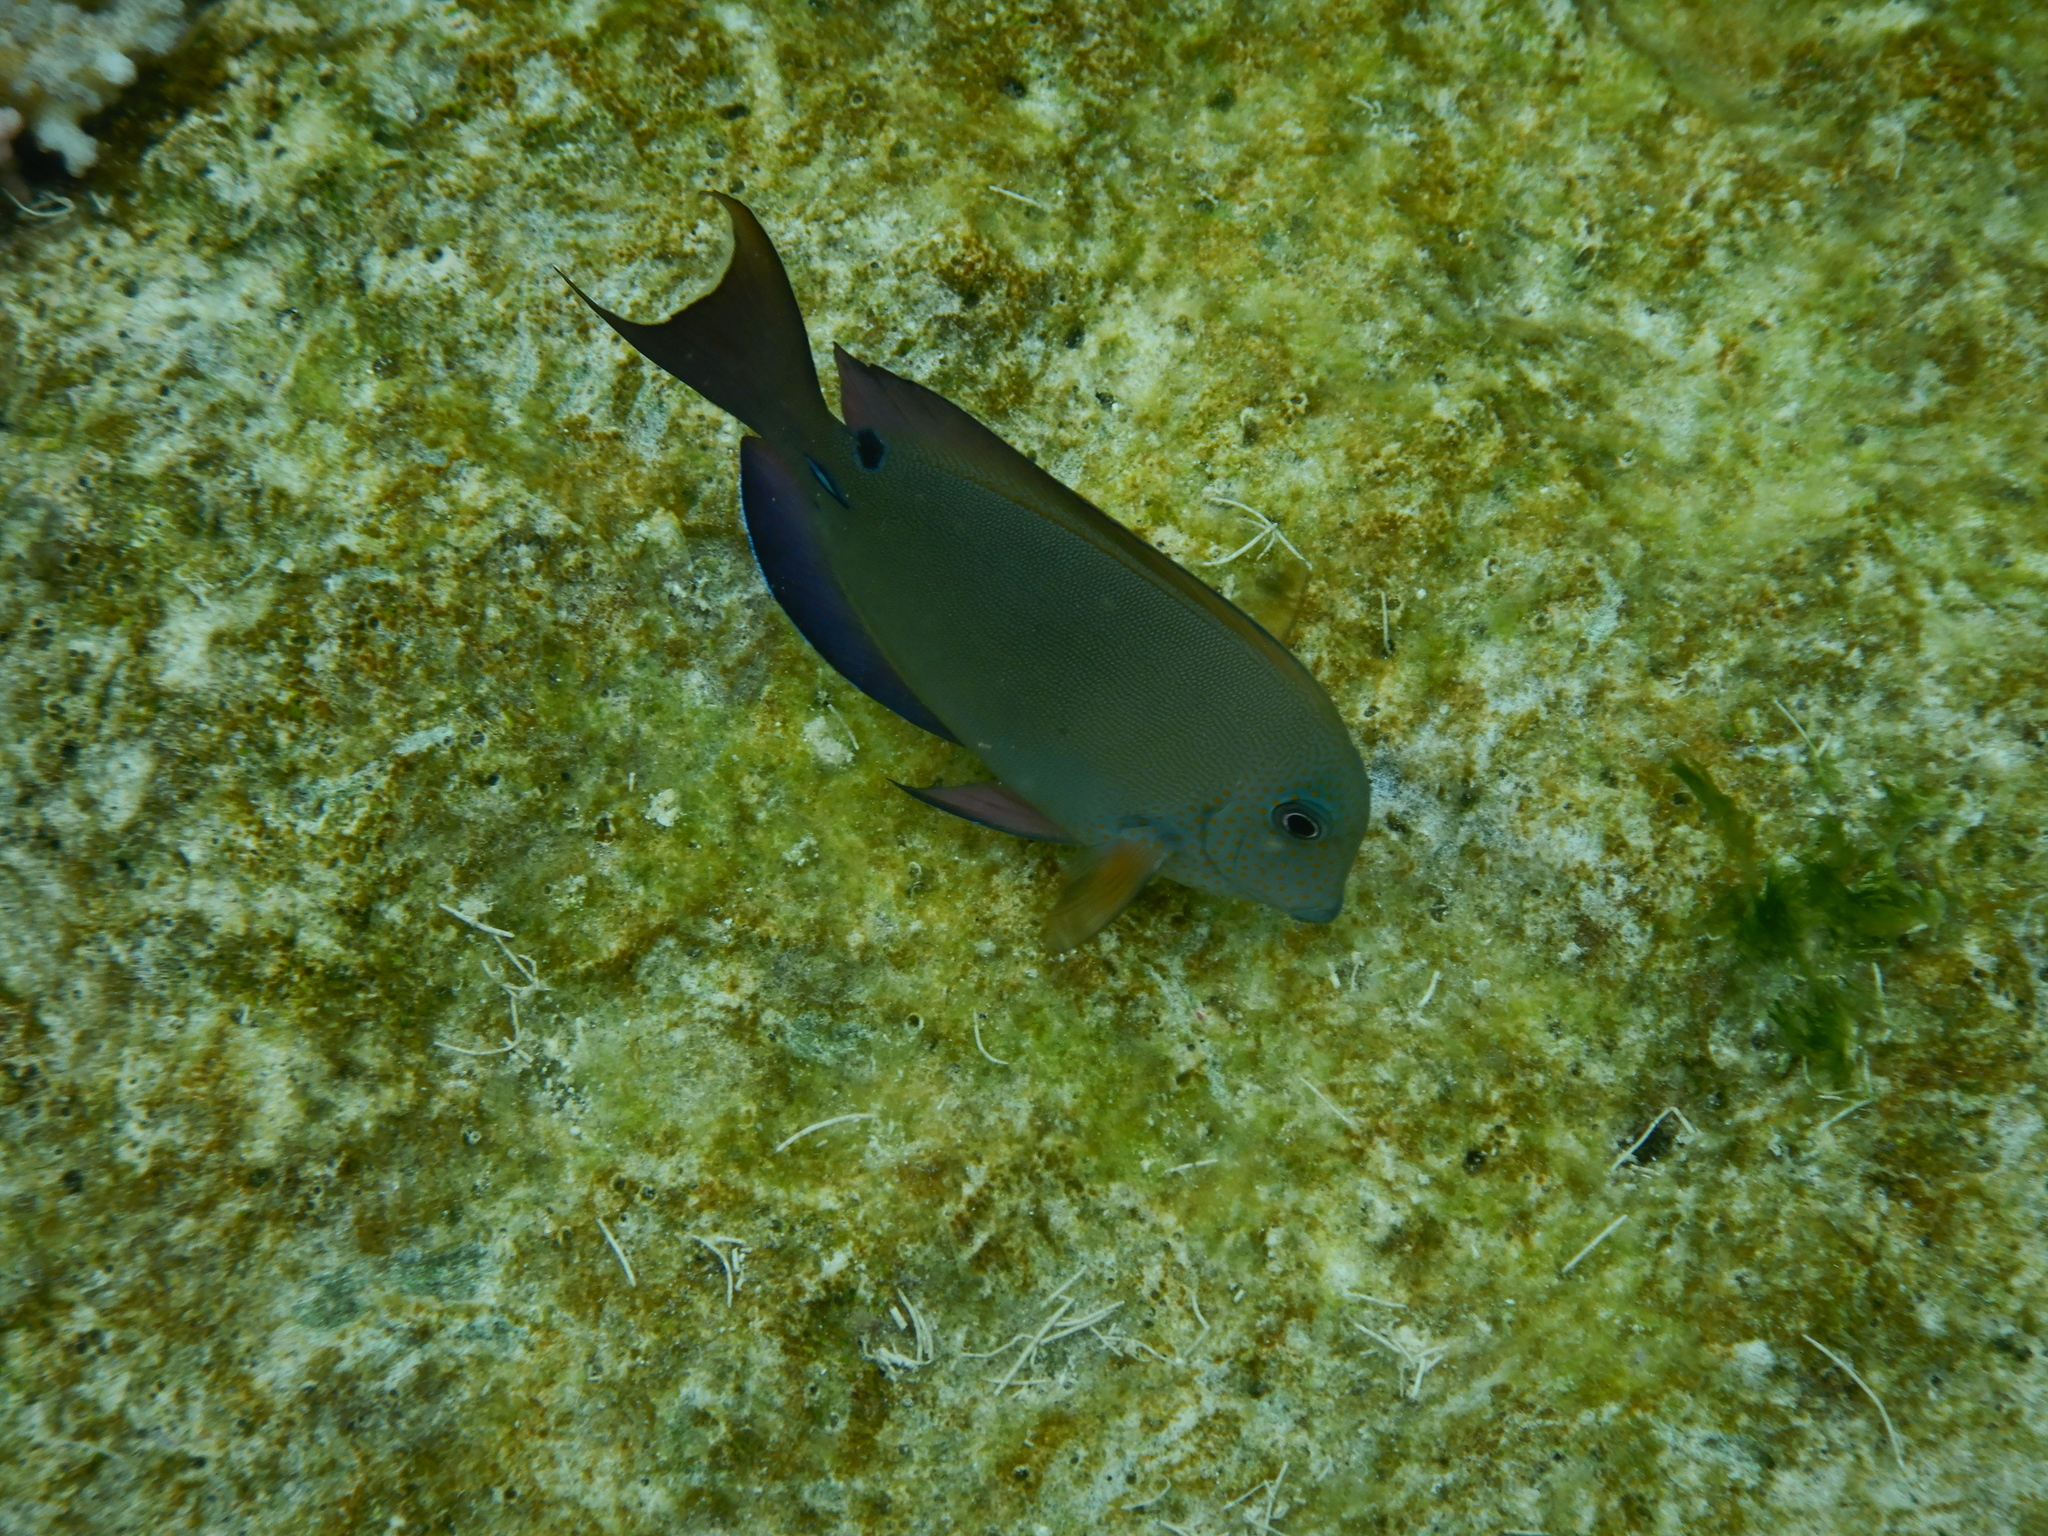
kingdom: Animalia
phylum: Chordata
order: Perciformes
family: Acanthuridae
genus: Acanthurus
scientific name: Acanthurus nigrofuscus
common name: Blackspot surgeonfish
